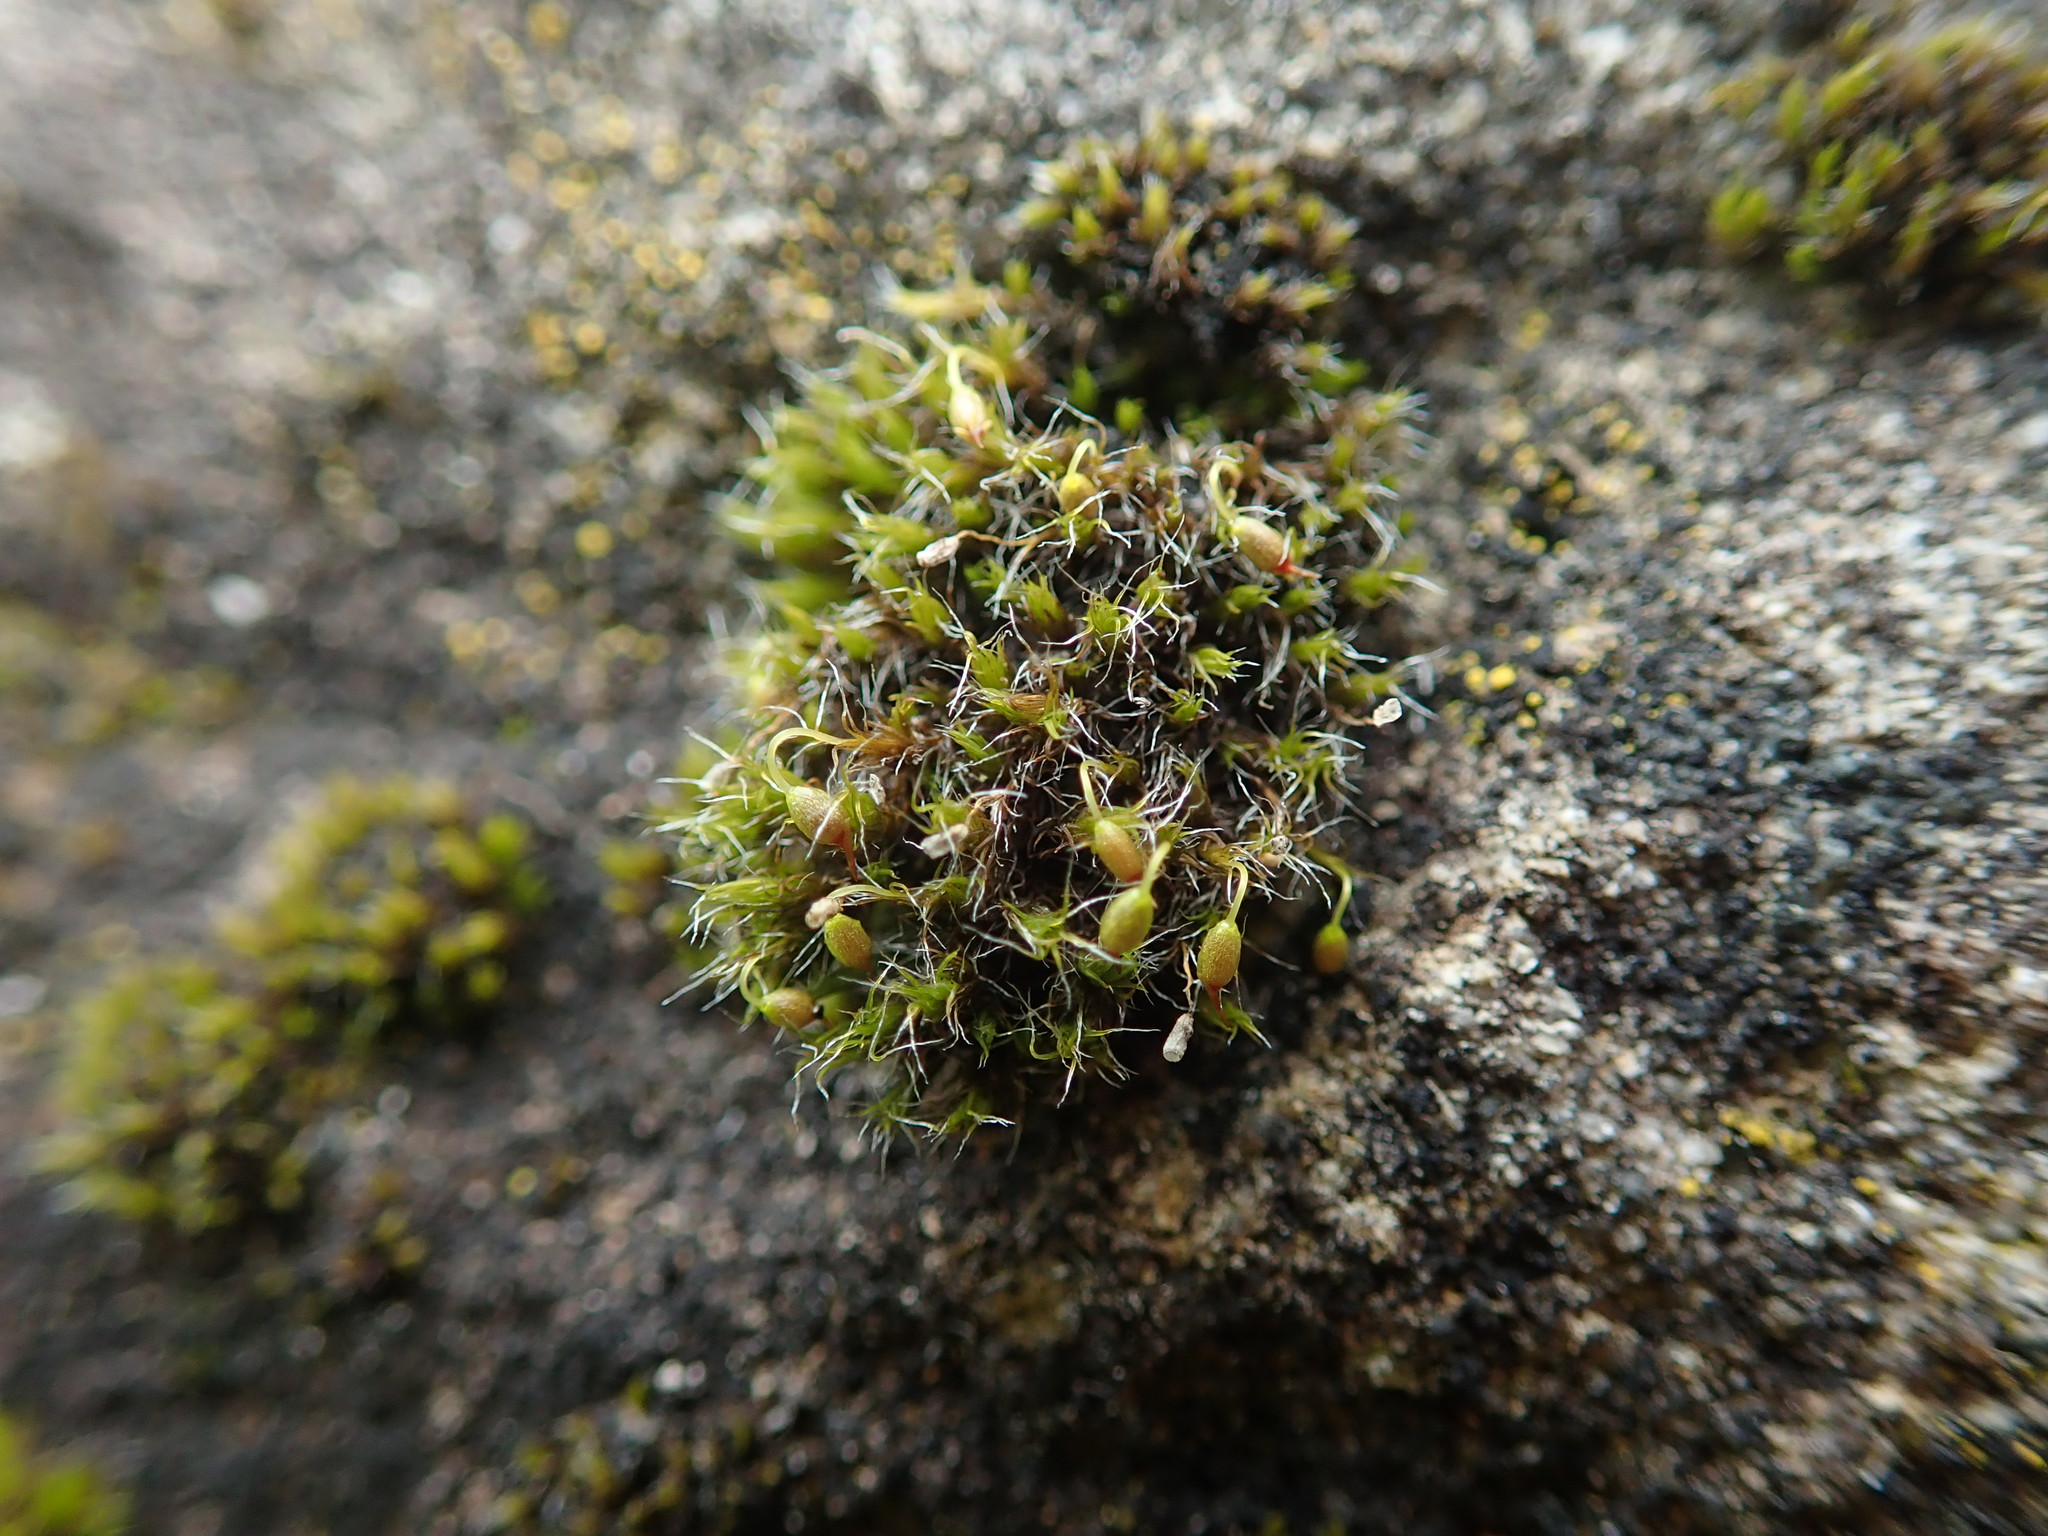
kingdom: Plantae
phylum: Bryophyta
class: Bryopsida
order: Grimmiales
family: Grimmiaceae
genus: Grimmia
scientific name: Grimmia pulvinata
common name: Grey-cushioned grimmia
